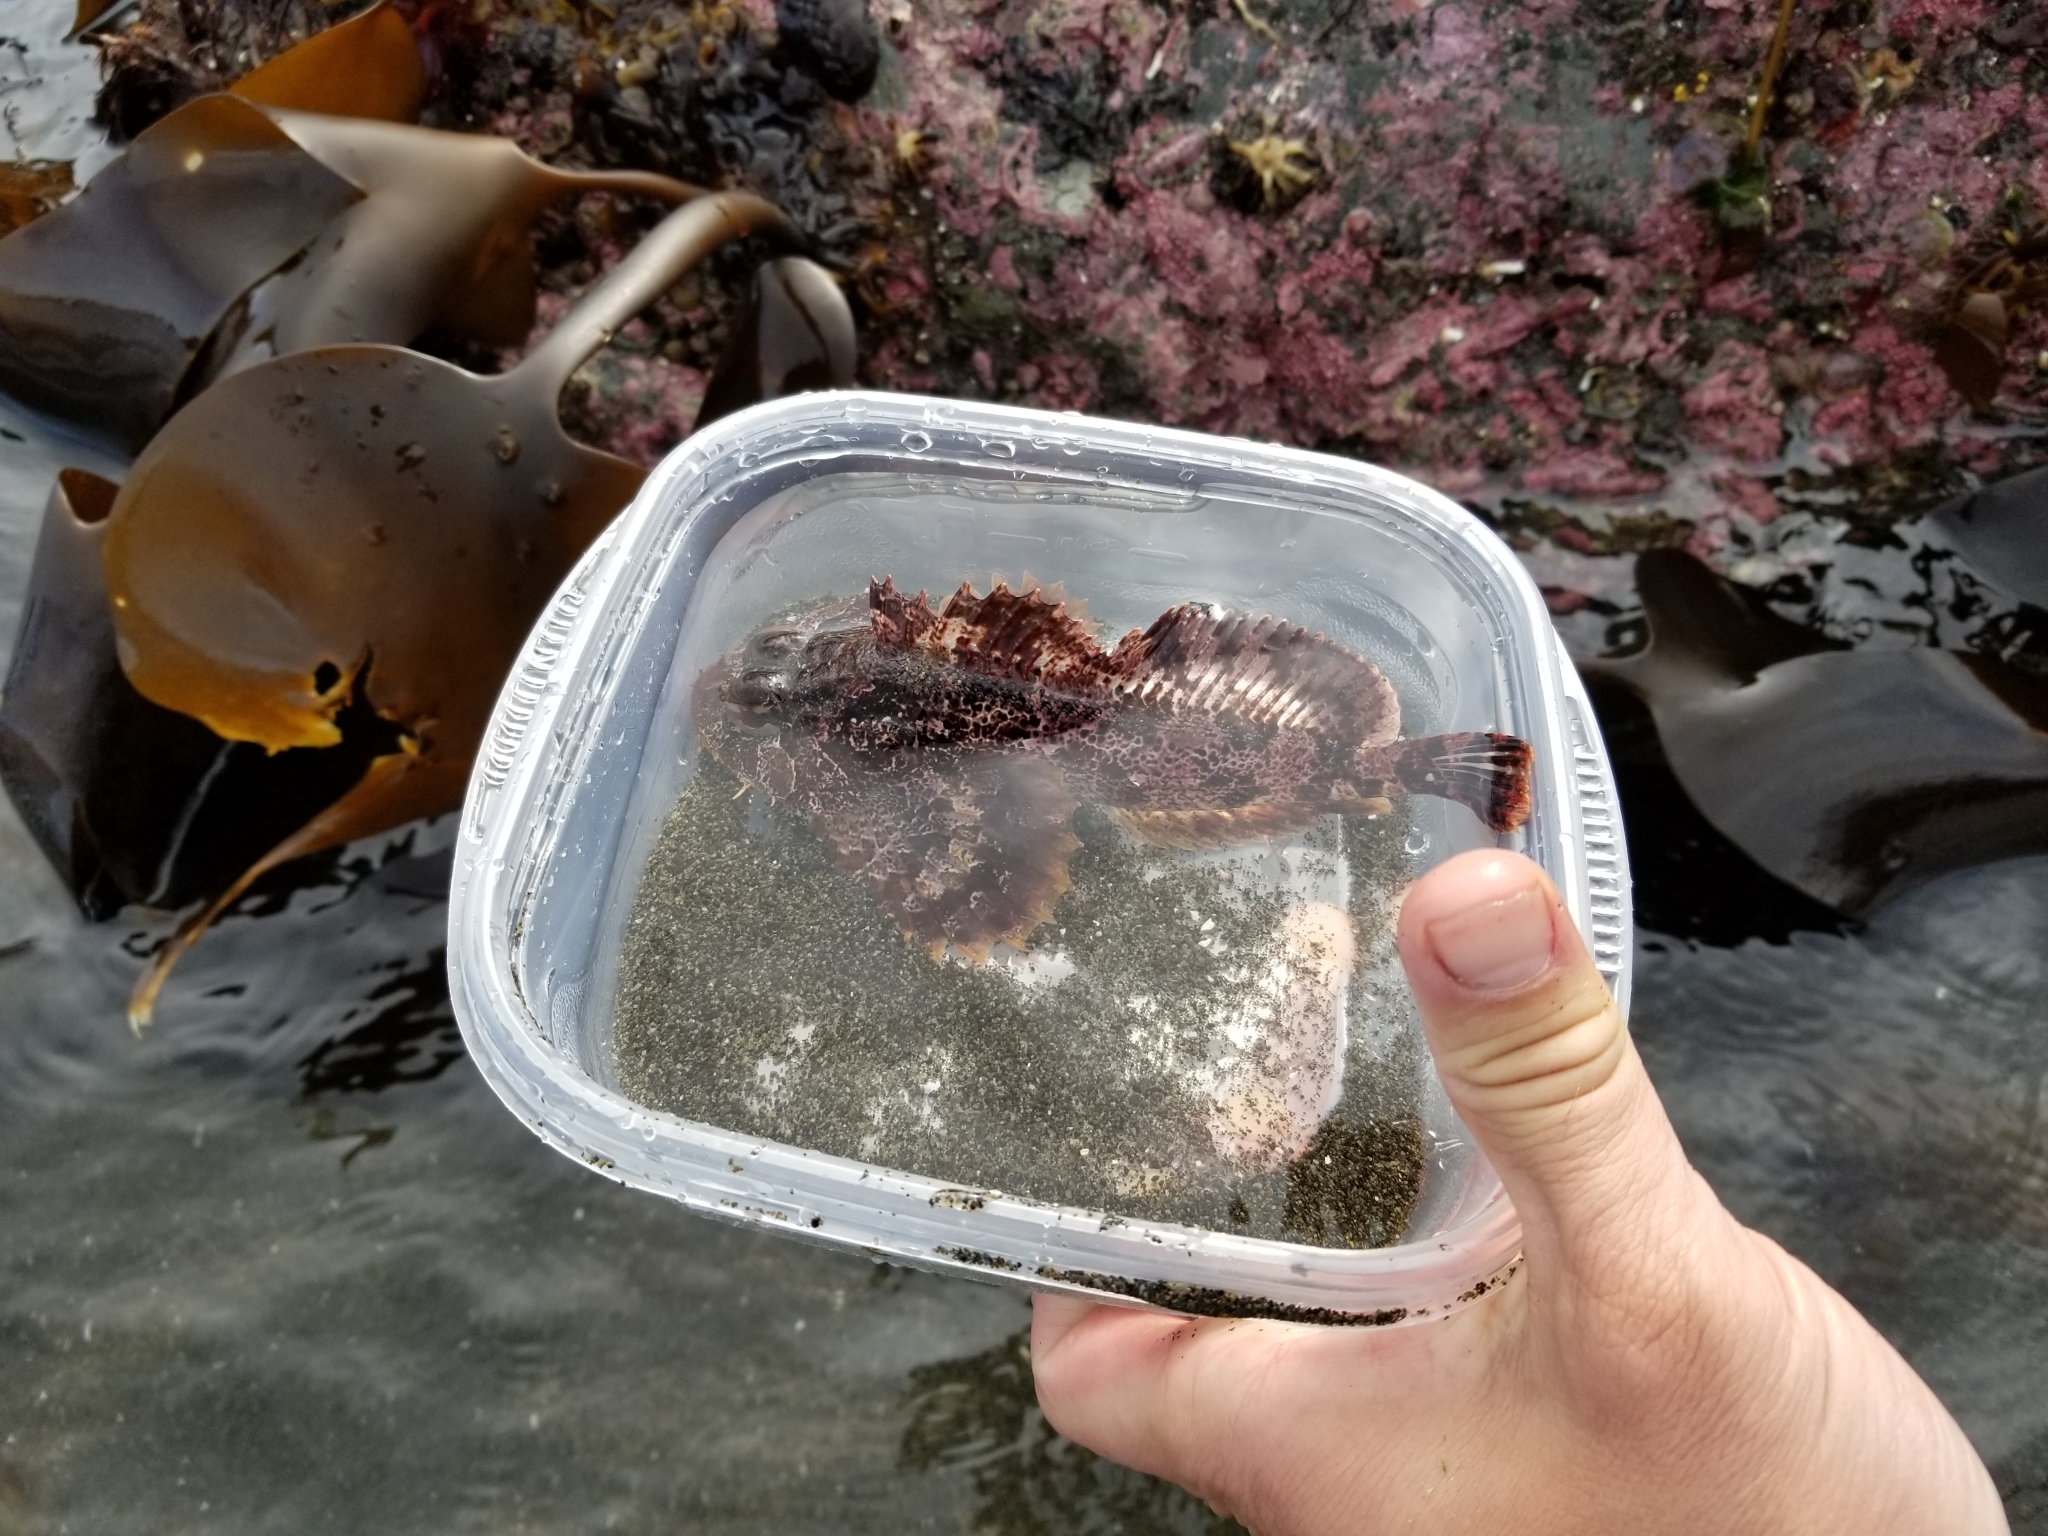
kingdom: Animalia
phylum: Chordata
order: Scorpaeniformes
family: Cottidae
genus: Hemilepidotus
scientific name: Hemilepidotus hemilepidotus
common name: Red irish lord
